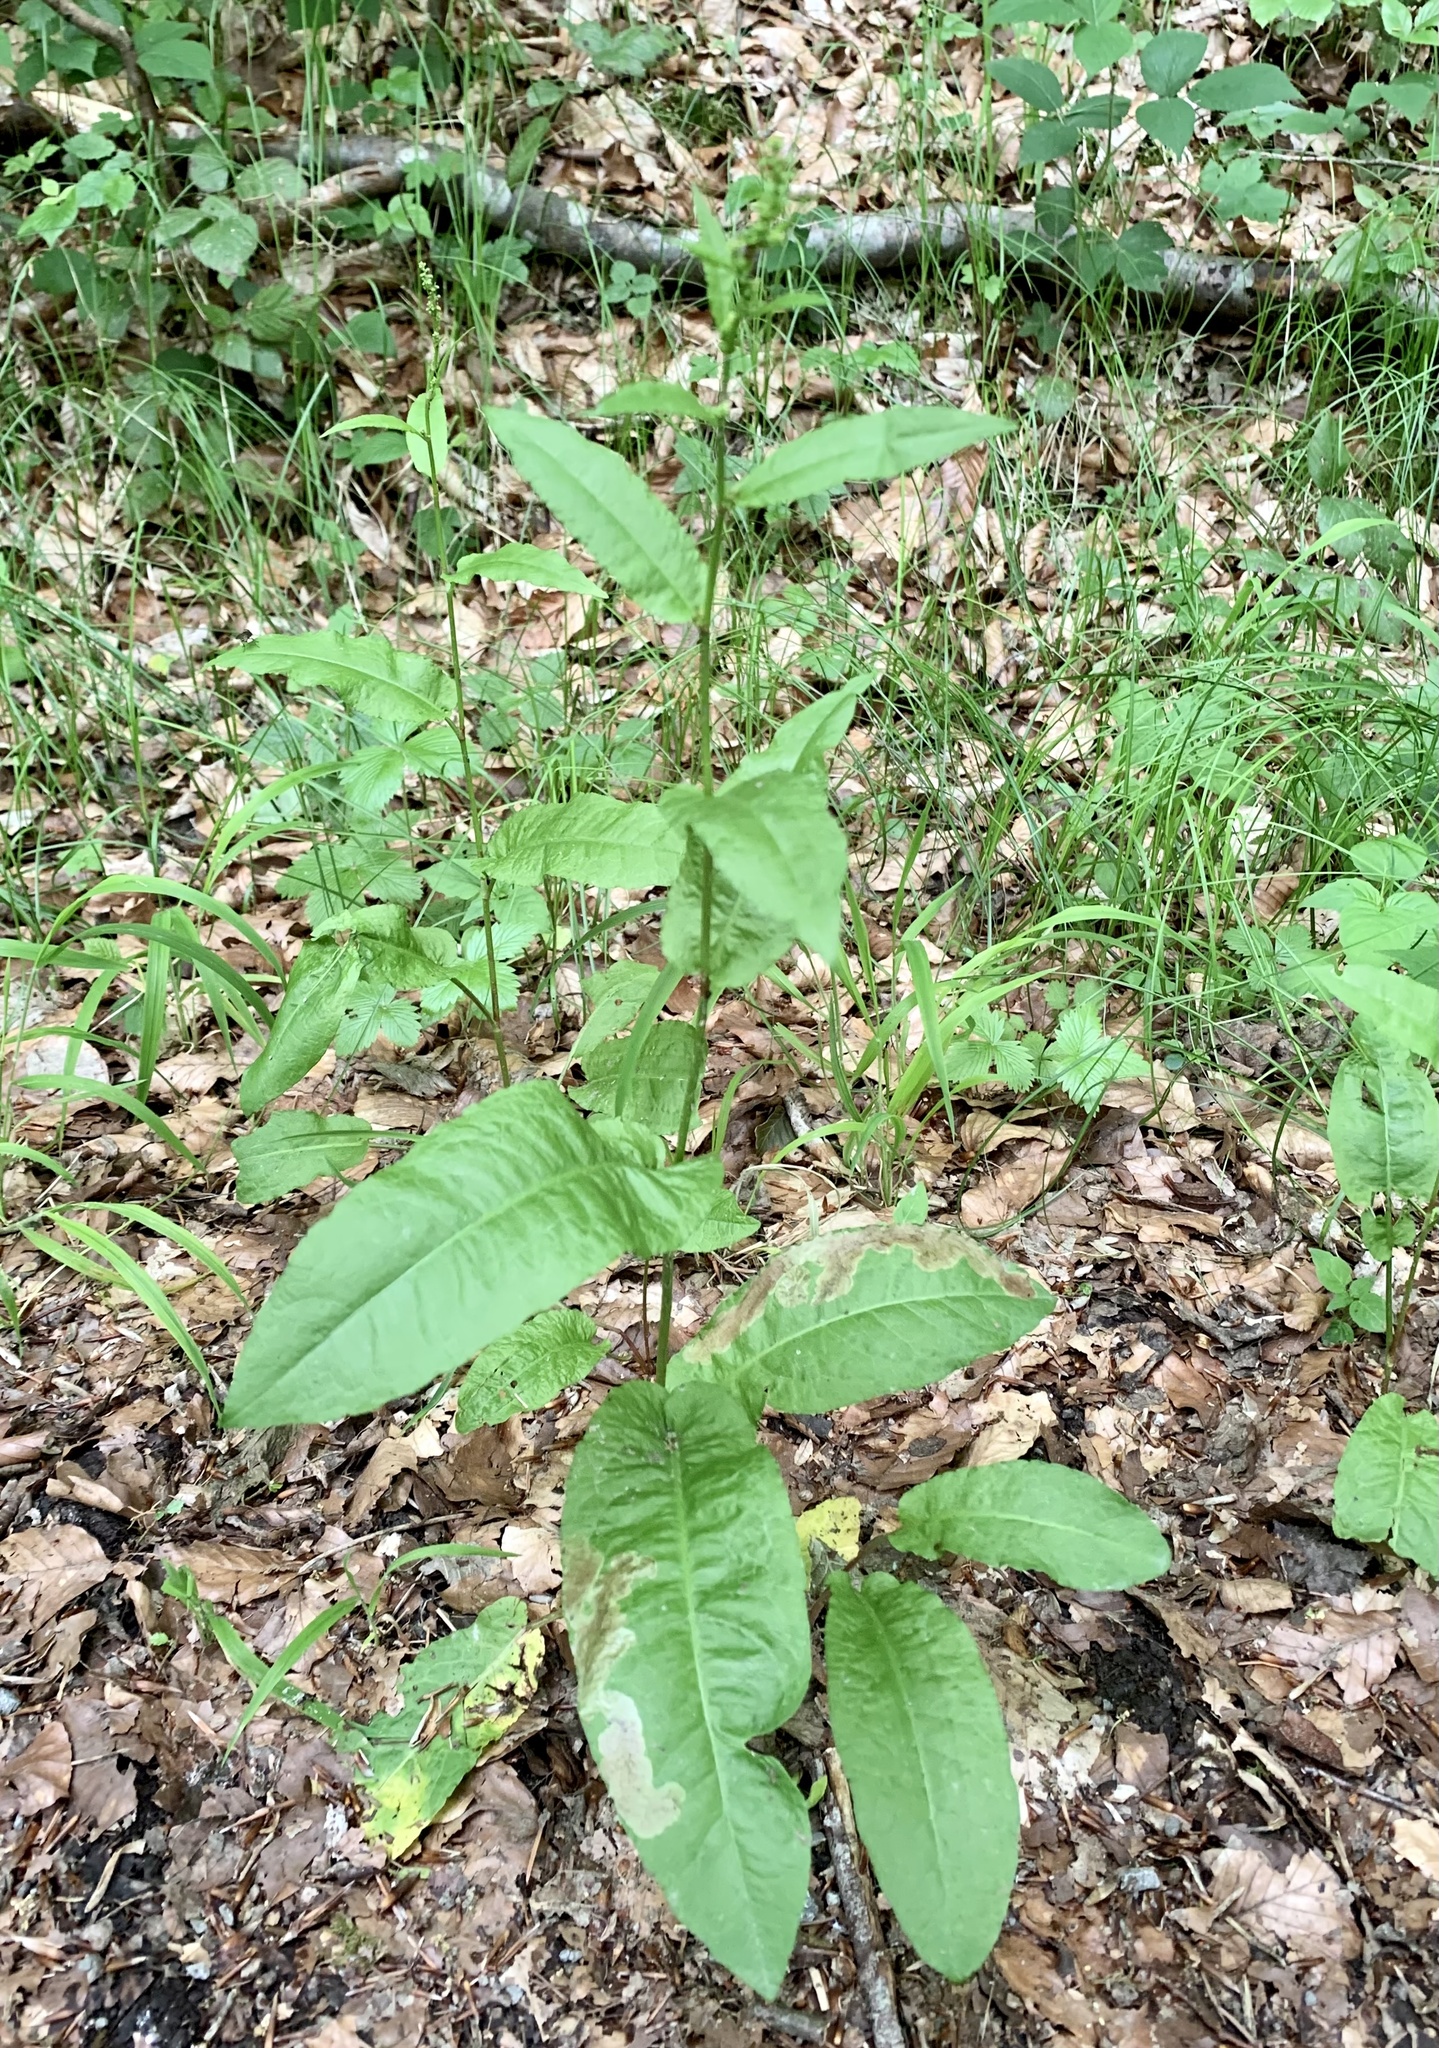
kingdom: Plantae
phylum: Tracheophyta
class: Magnoliopsida
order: Caryophyllales
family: Polygonaceae
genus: Rumex
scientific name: Rumex sanguineus
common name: Wood dock
